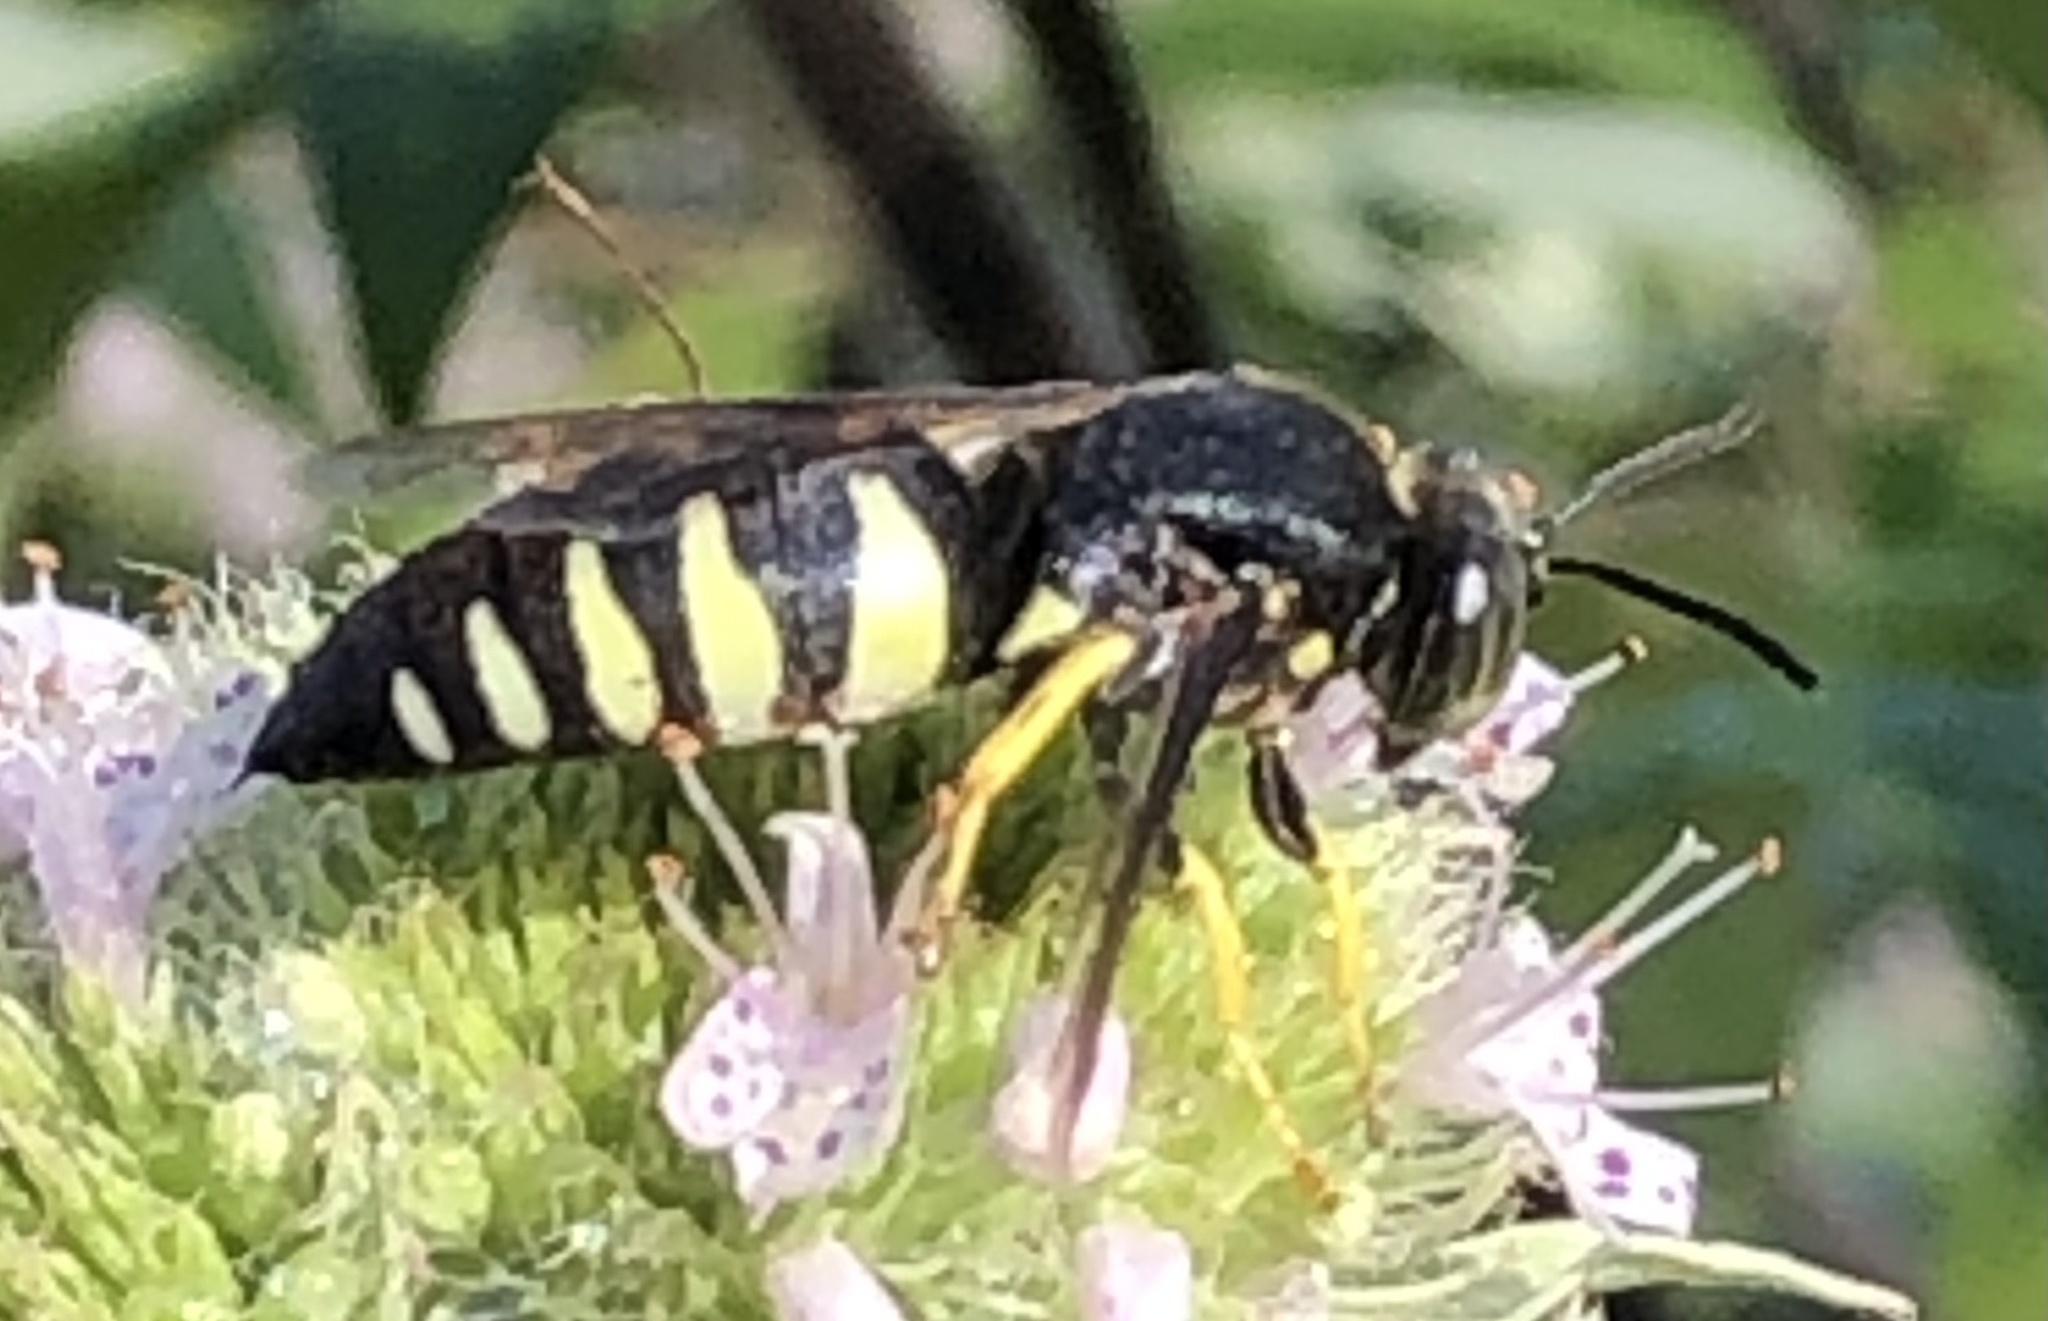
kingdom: Animalia
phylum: Arthropoda
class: Insecta
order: Hymenoptera
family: Crabronidae
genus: Bicyrtes
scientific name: Bicyrtes quadrifasciatus
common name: Four-banded stink bug hunter wasp
